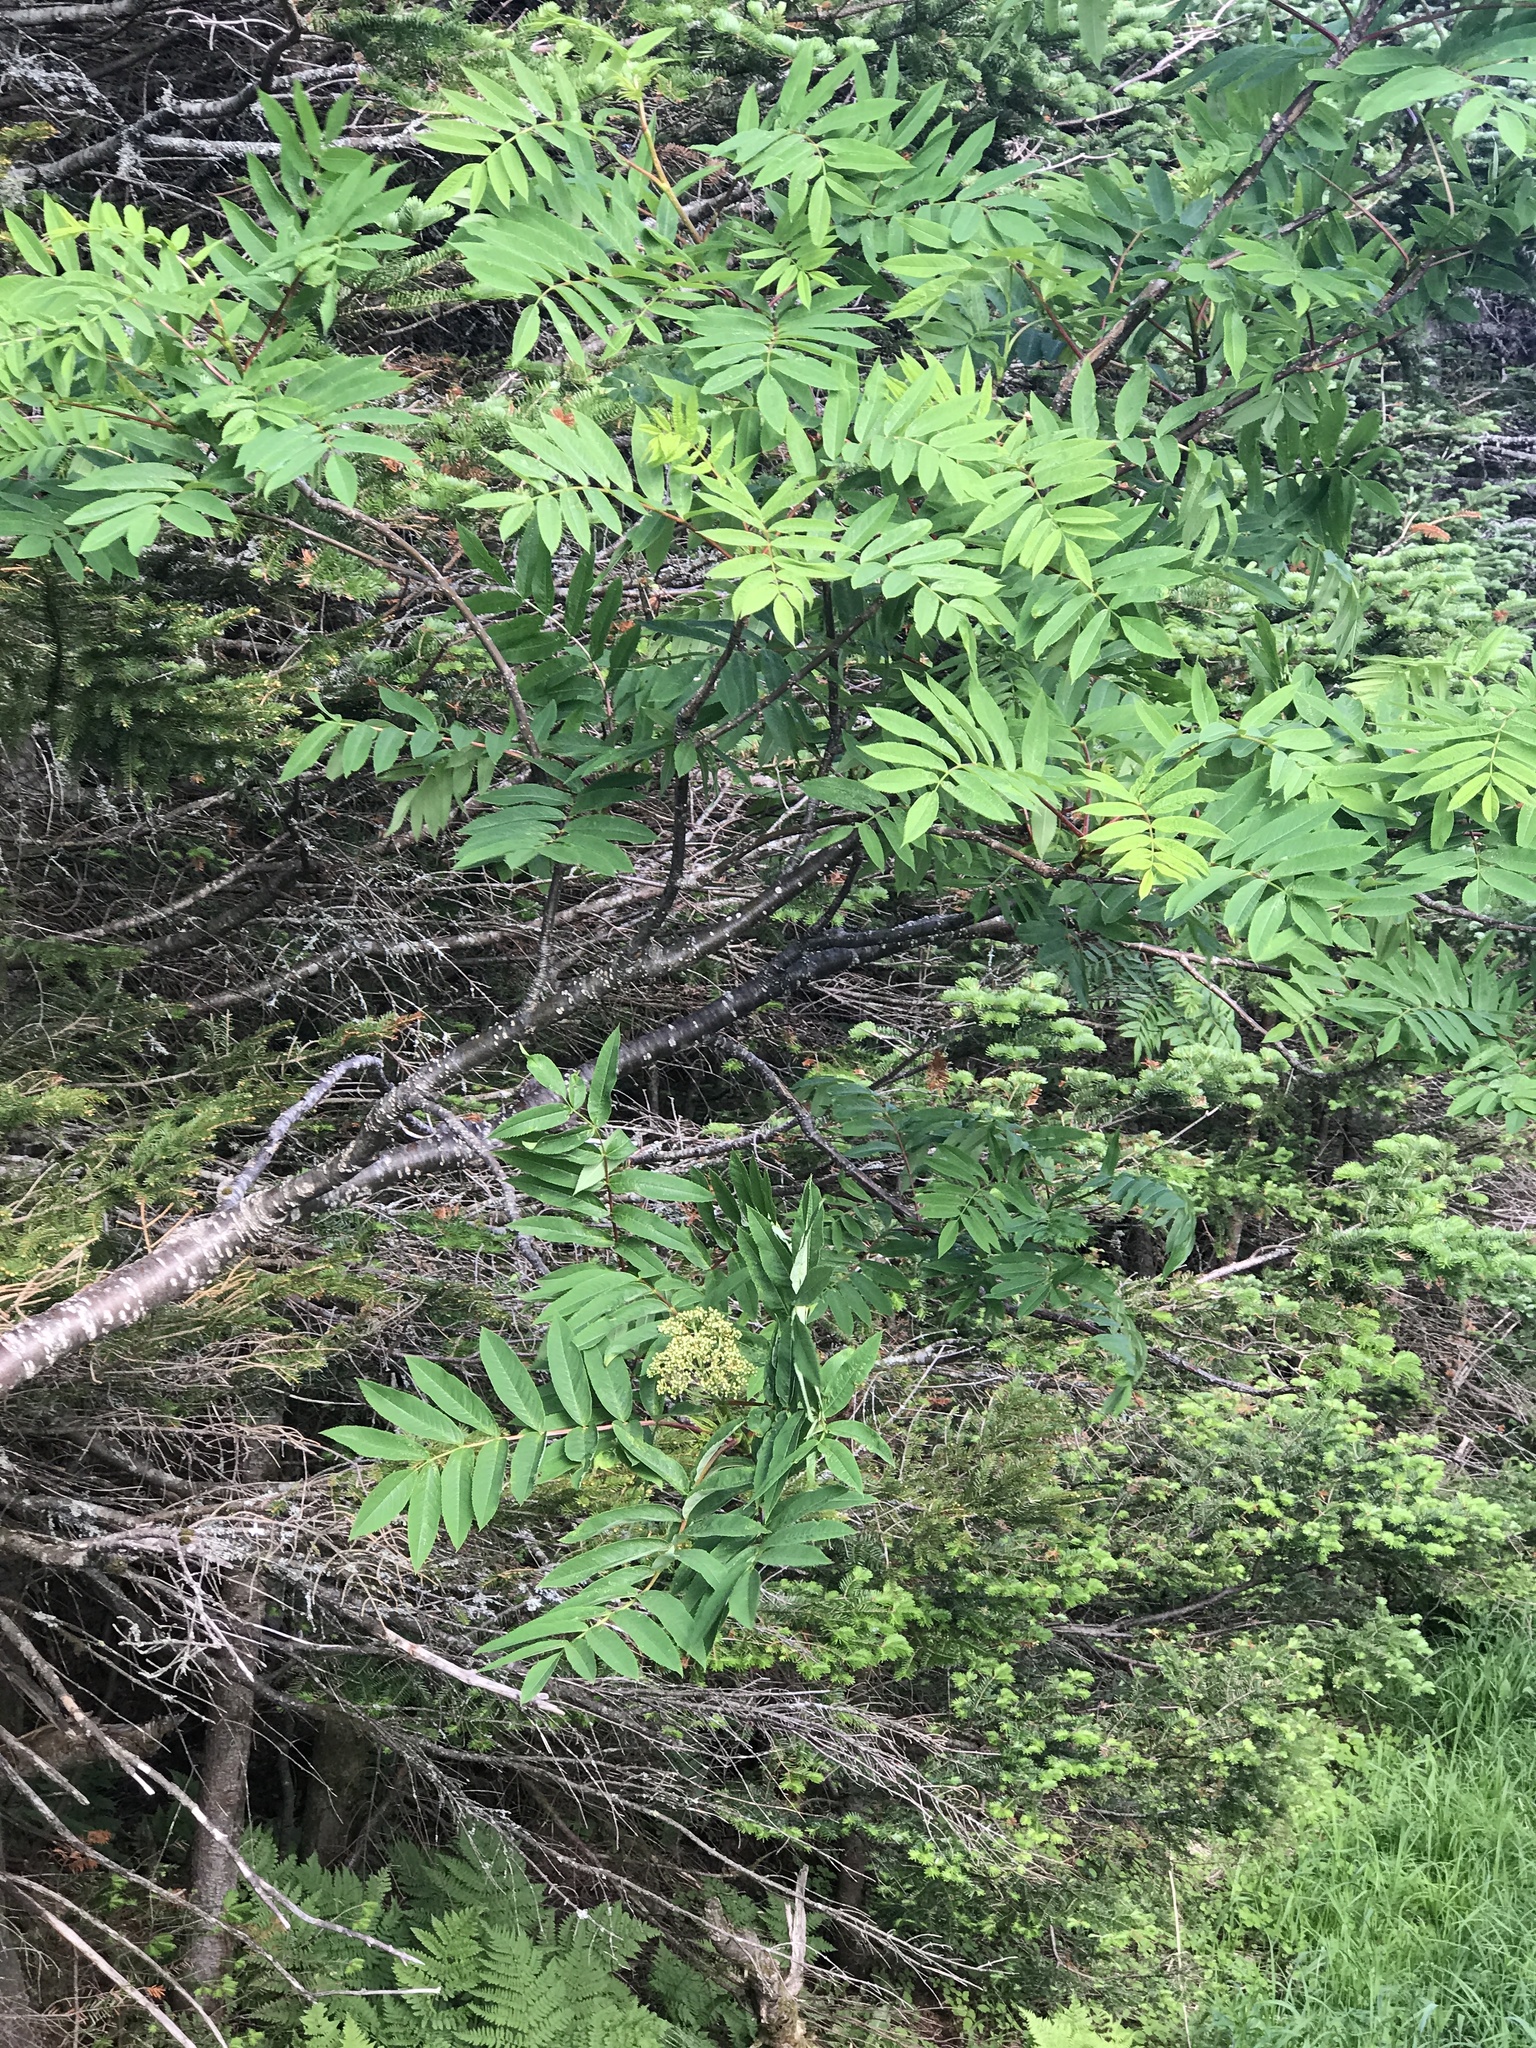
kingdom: Plantae
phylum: Tracheophyta
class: Magnoliopsida
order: Rosales
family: Rosaceae
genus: Sorbus
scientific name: Sorbus americana
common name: American mountain-ash
